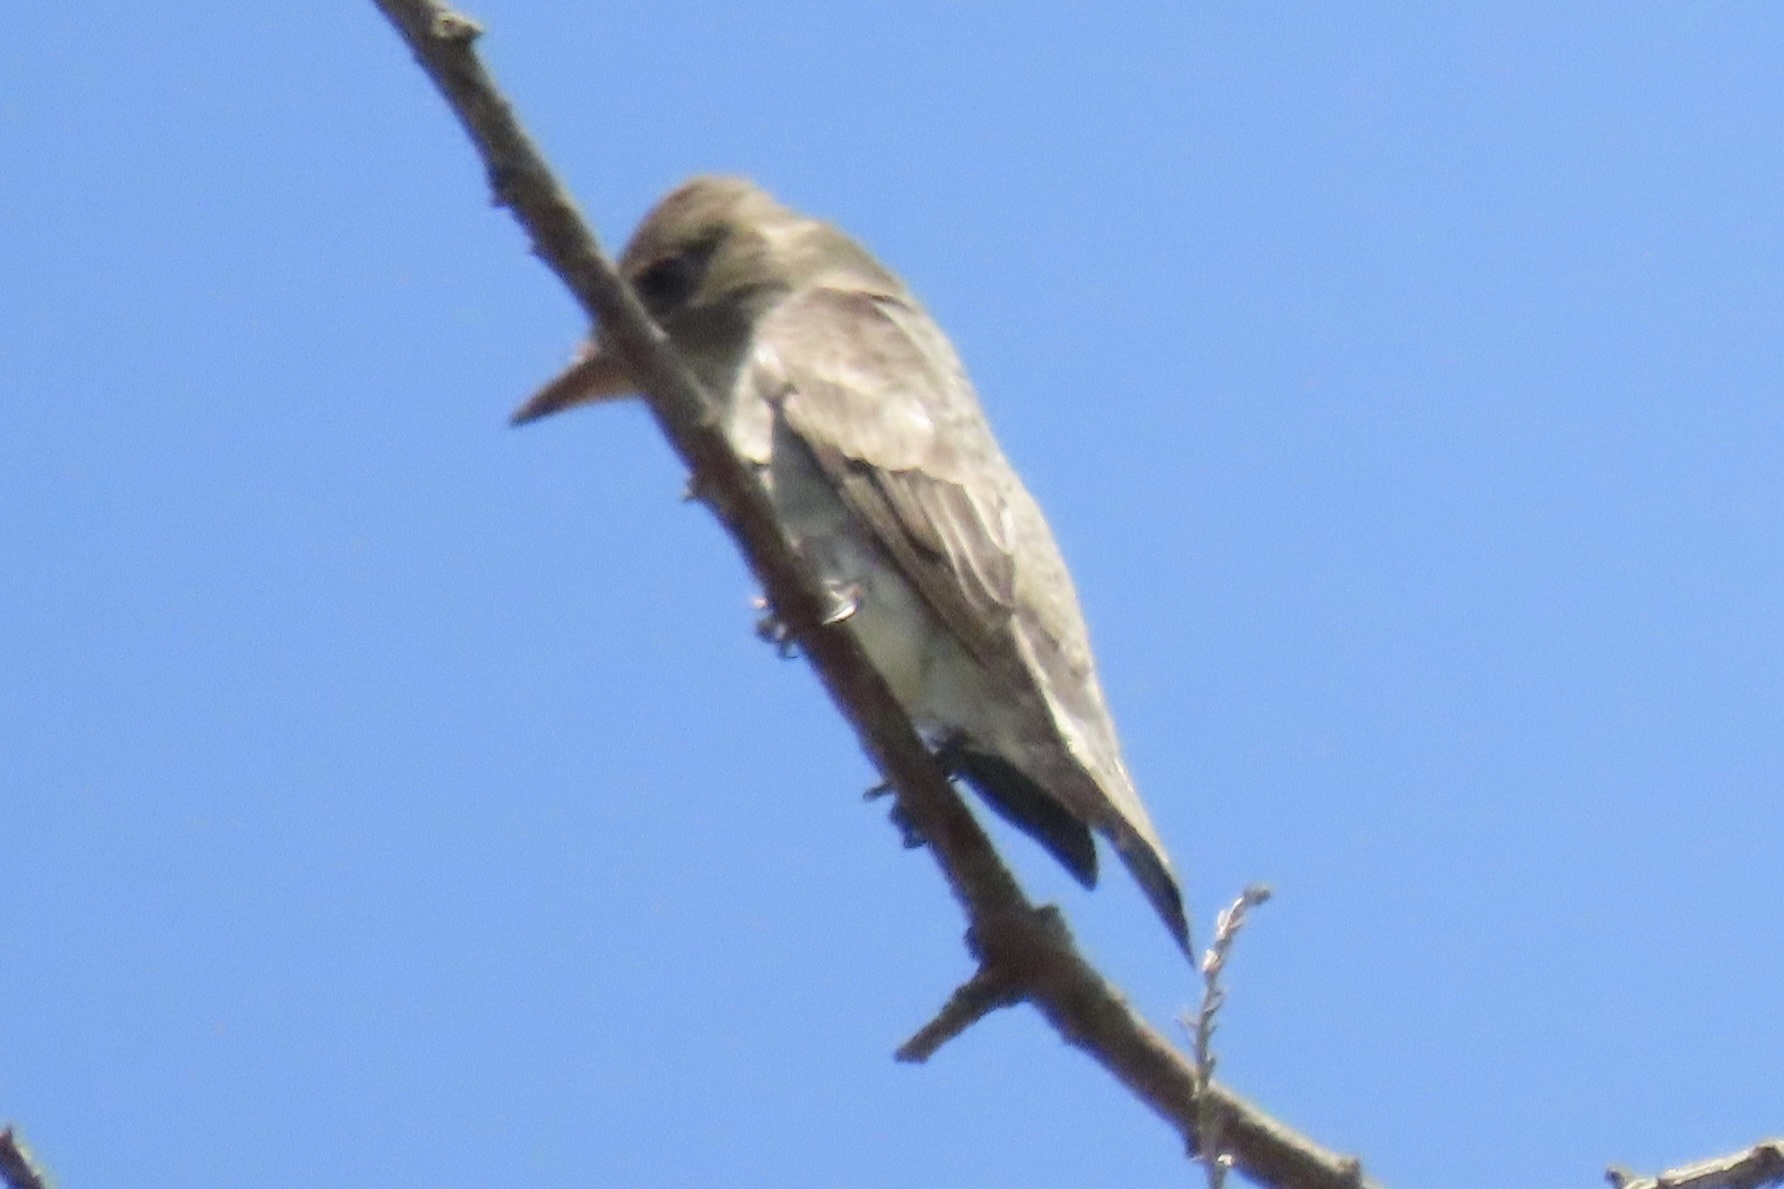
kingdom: Animalia
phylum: Chordata
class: Aves
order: Passeriformes
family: Tyrannidae
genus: Contopus
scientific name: Contopus cooperi
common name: Olive-sided flycatcher
